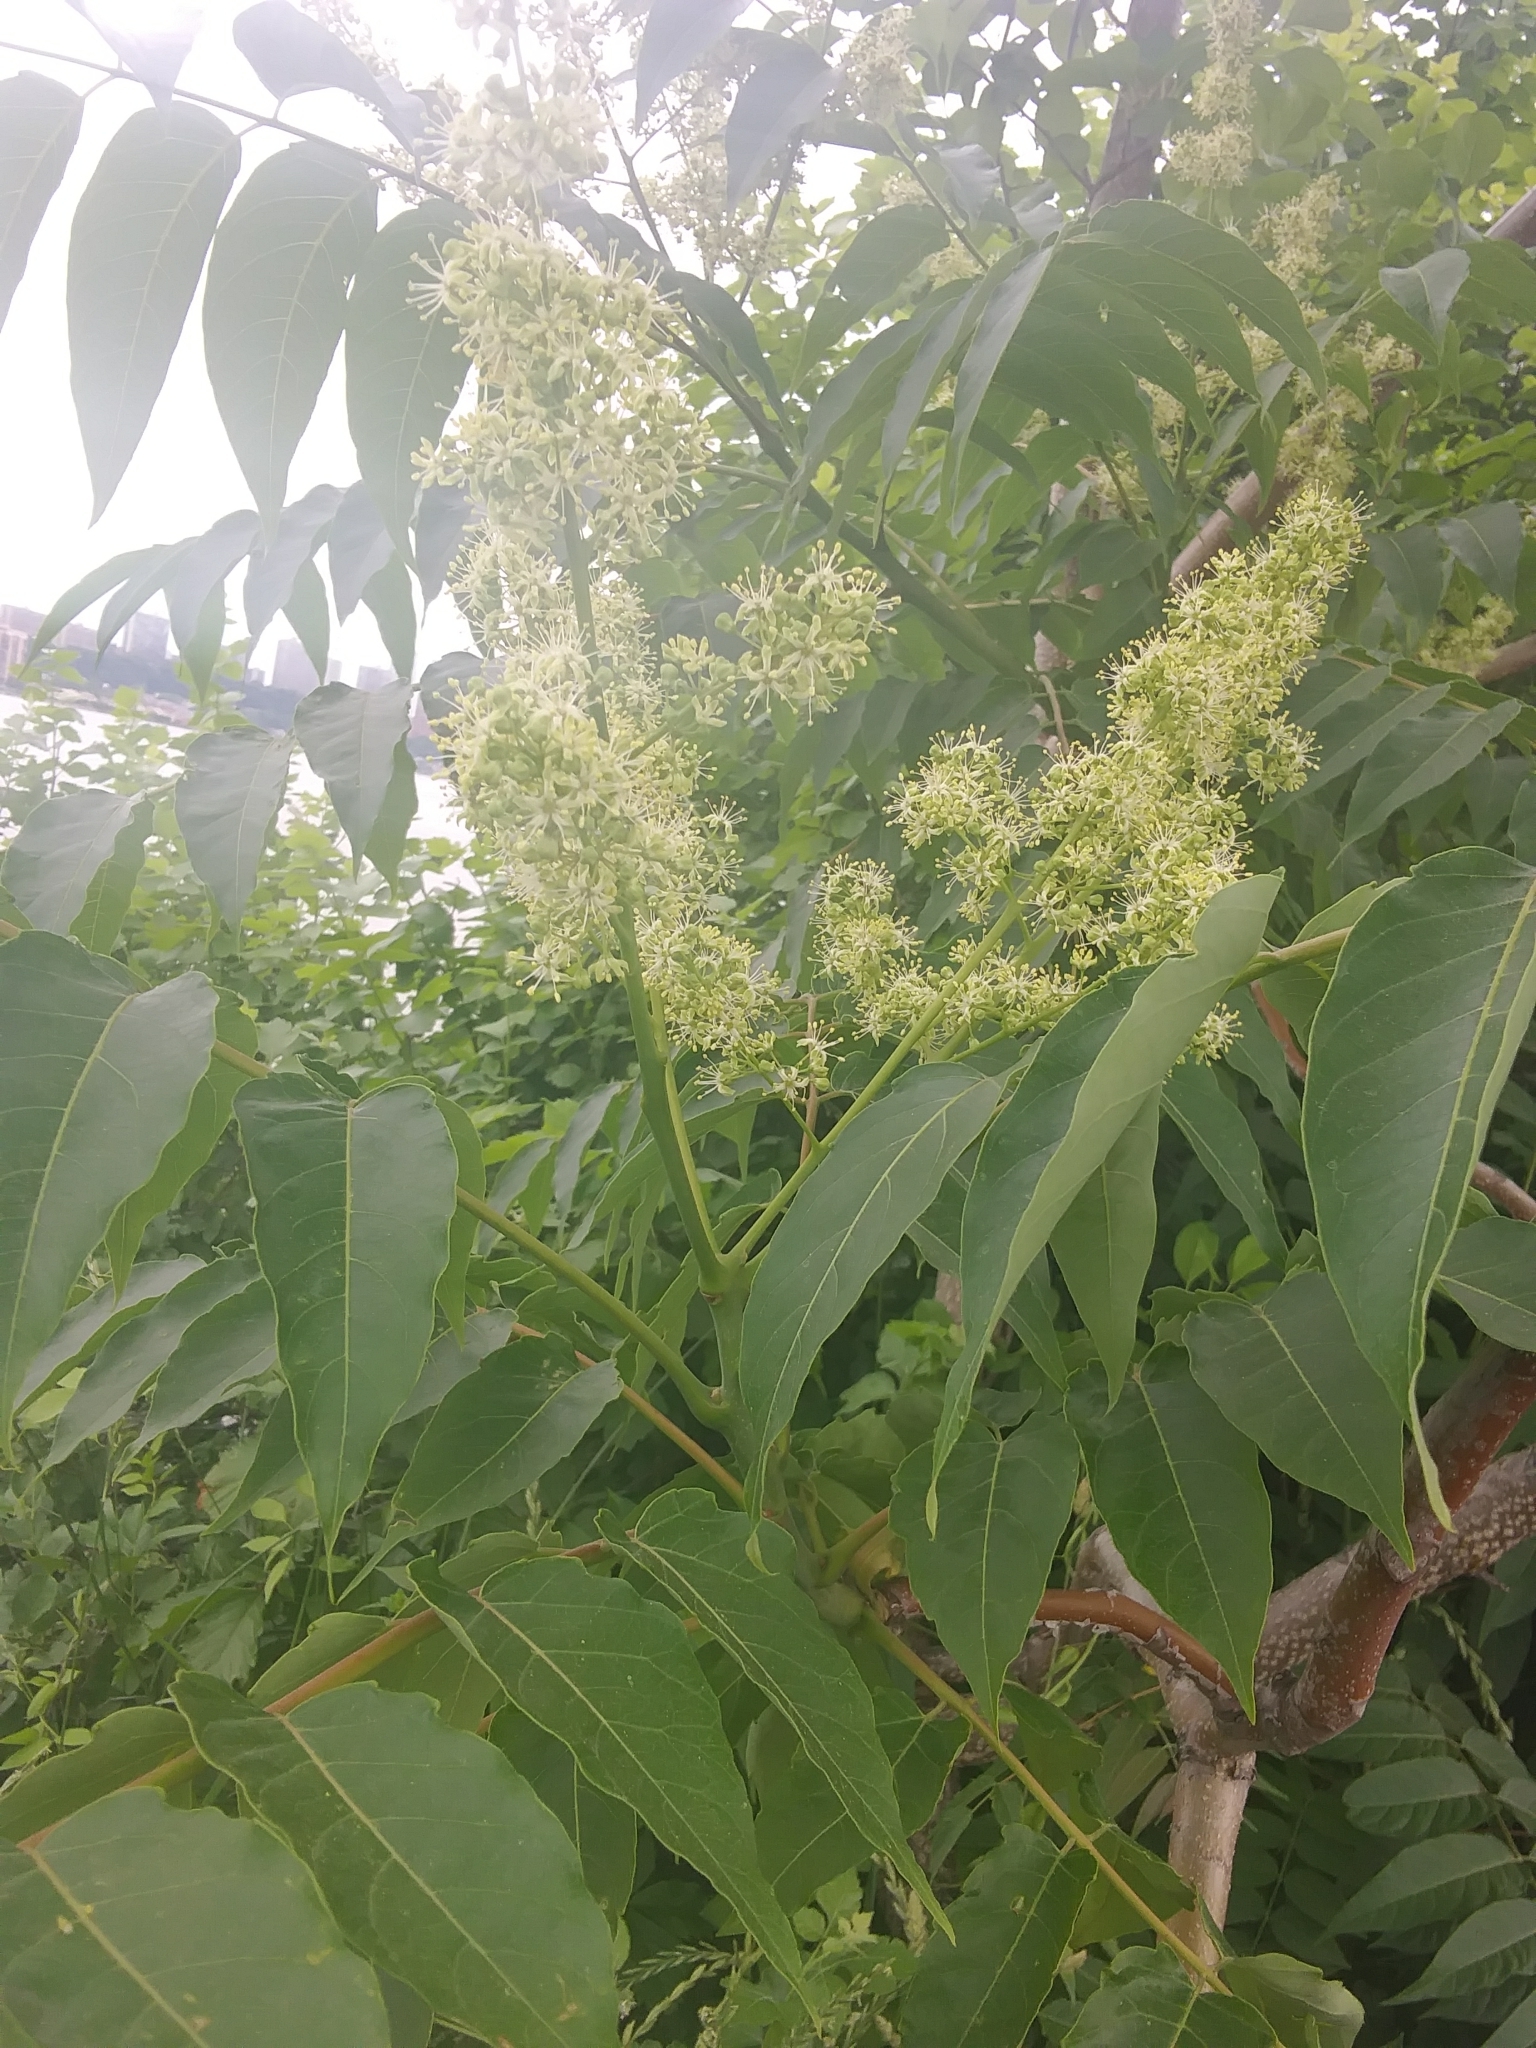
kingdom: Plantae
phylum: Tracheophyta
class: Magnoliopsida
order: Sapindales
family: Simaroubaceae
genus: Ailanthus
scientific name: Ailanthus altissima
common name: Tree-of-heaven
